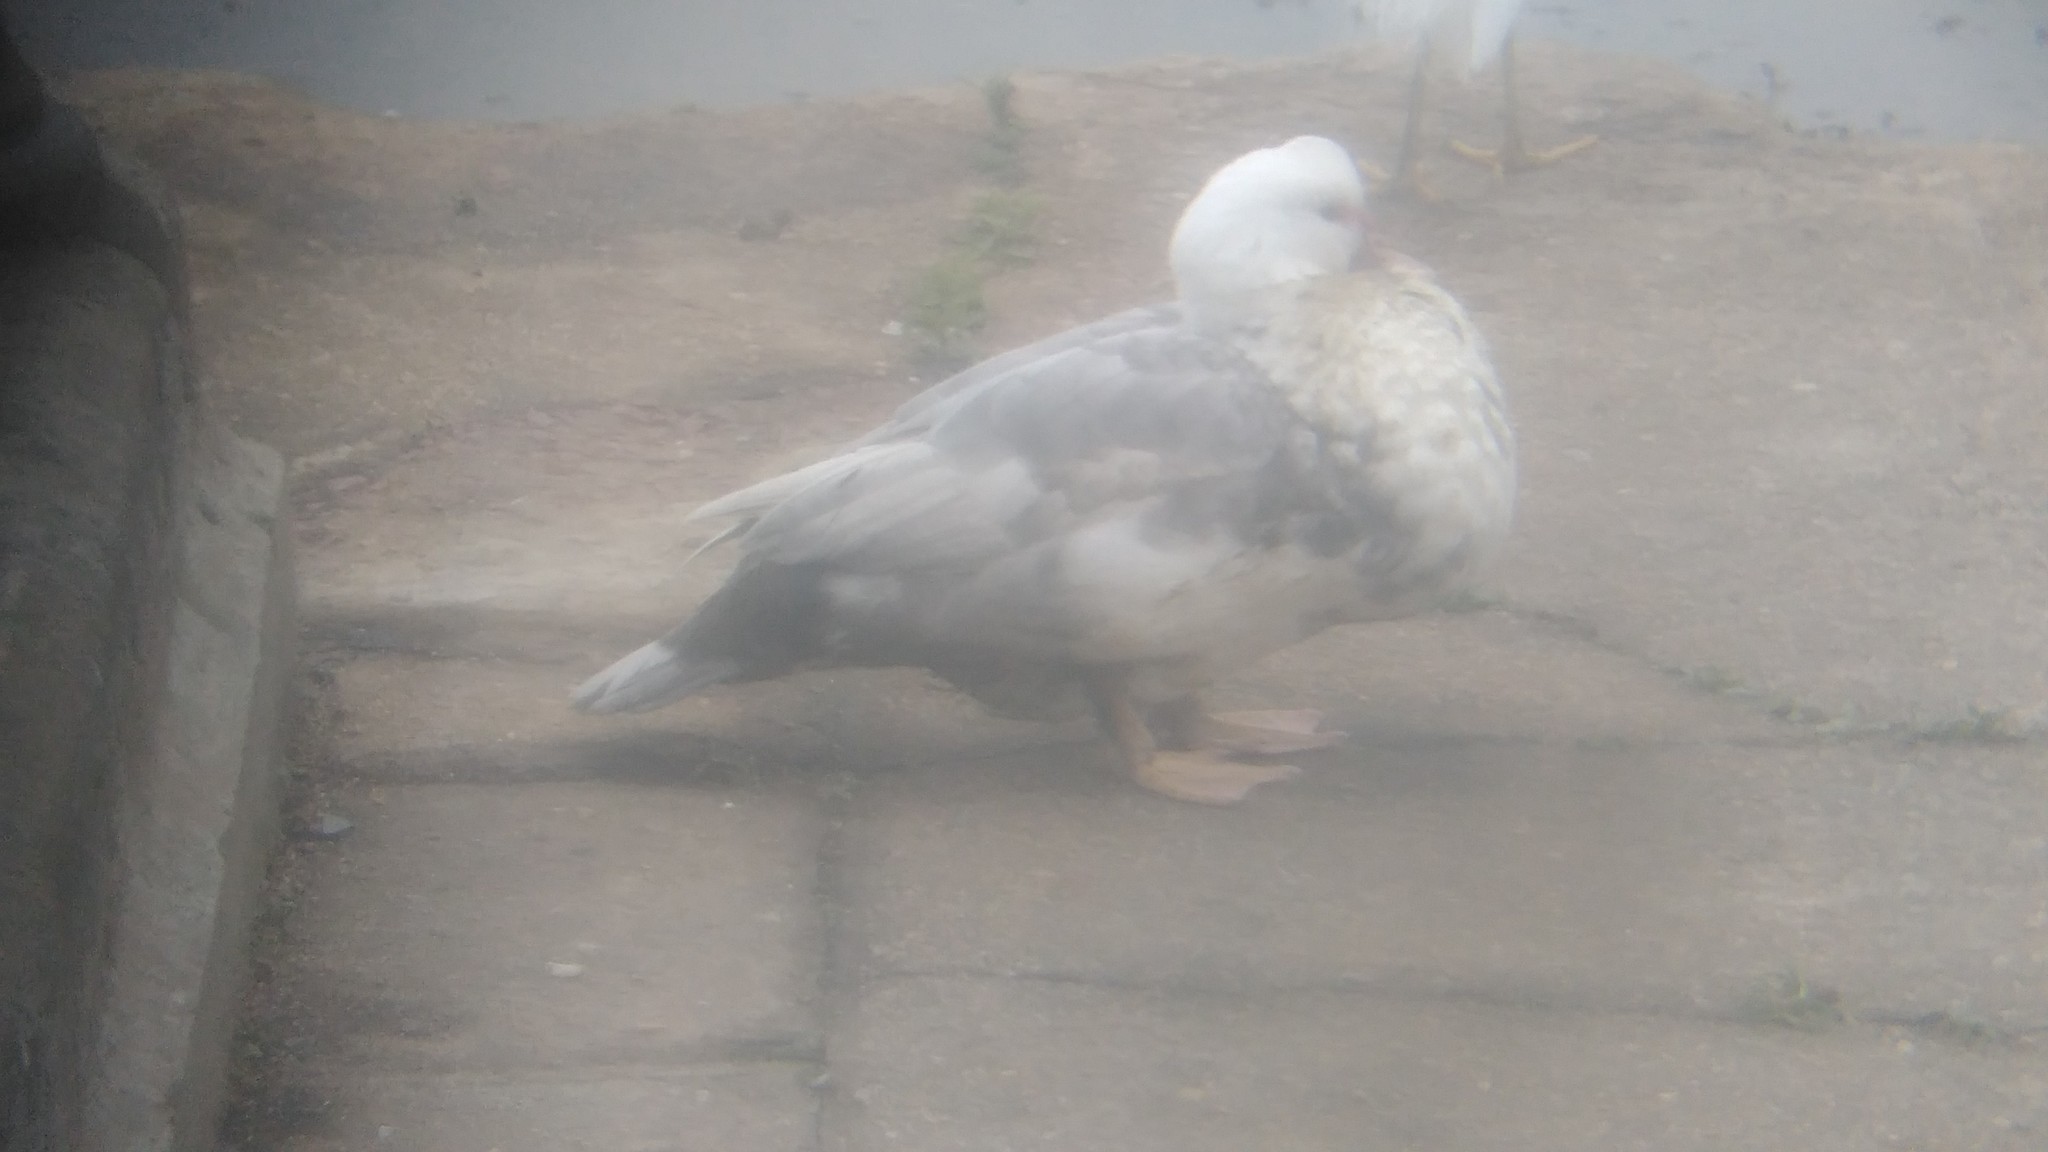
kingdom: Animalia
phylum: Chordata
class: Aves
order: Anseriformes
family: Anatidae
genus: Cairina
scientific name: Cairina moschata
